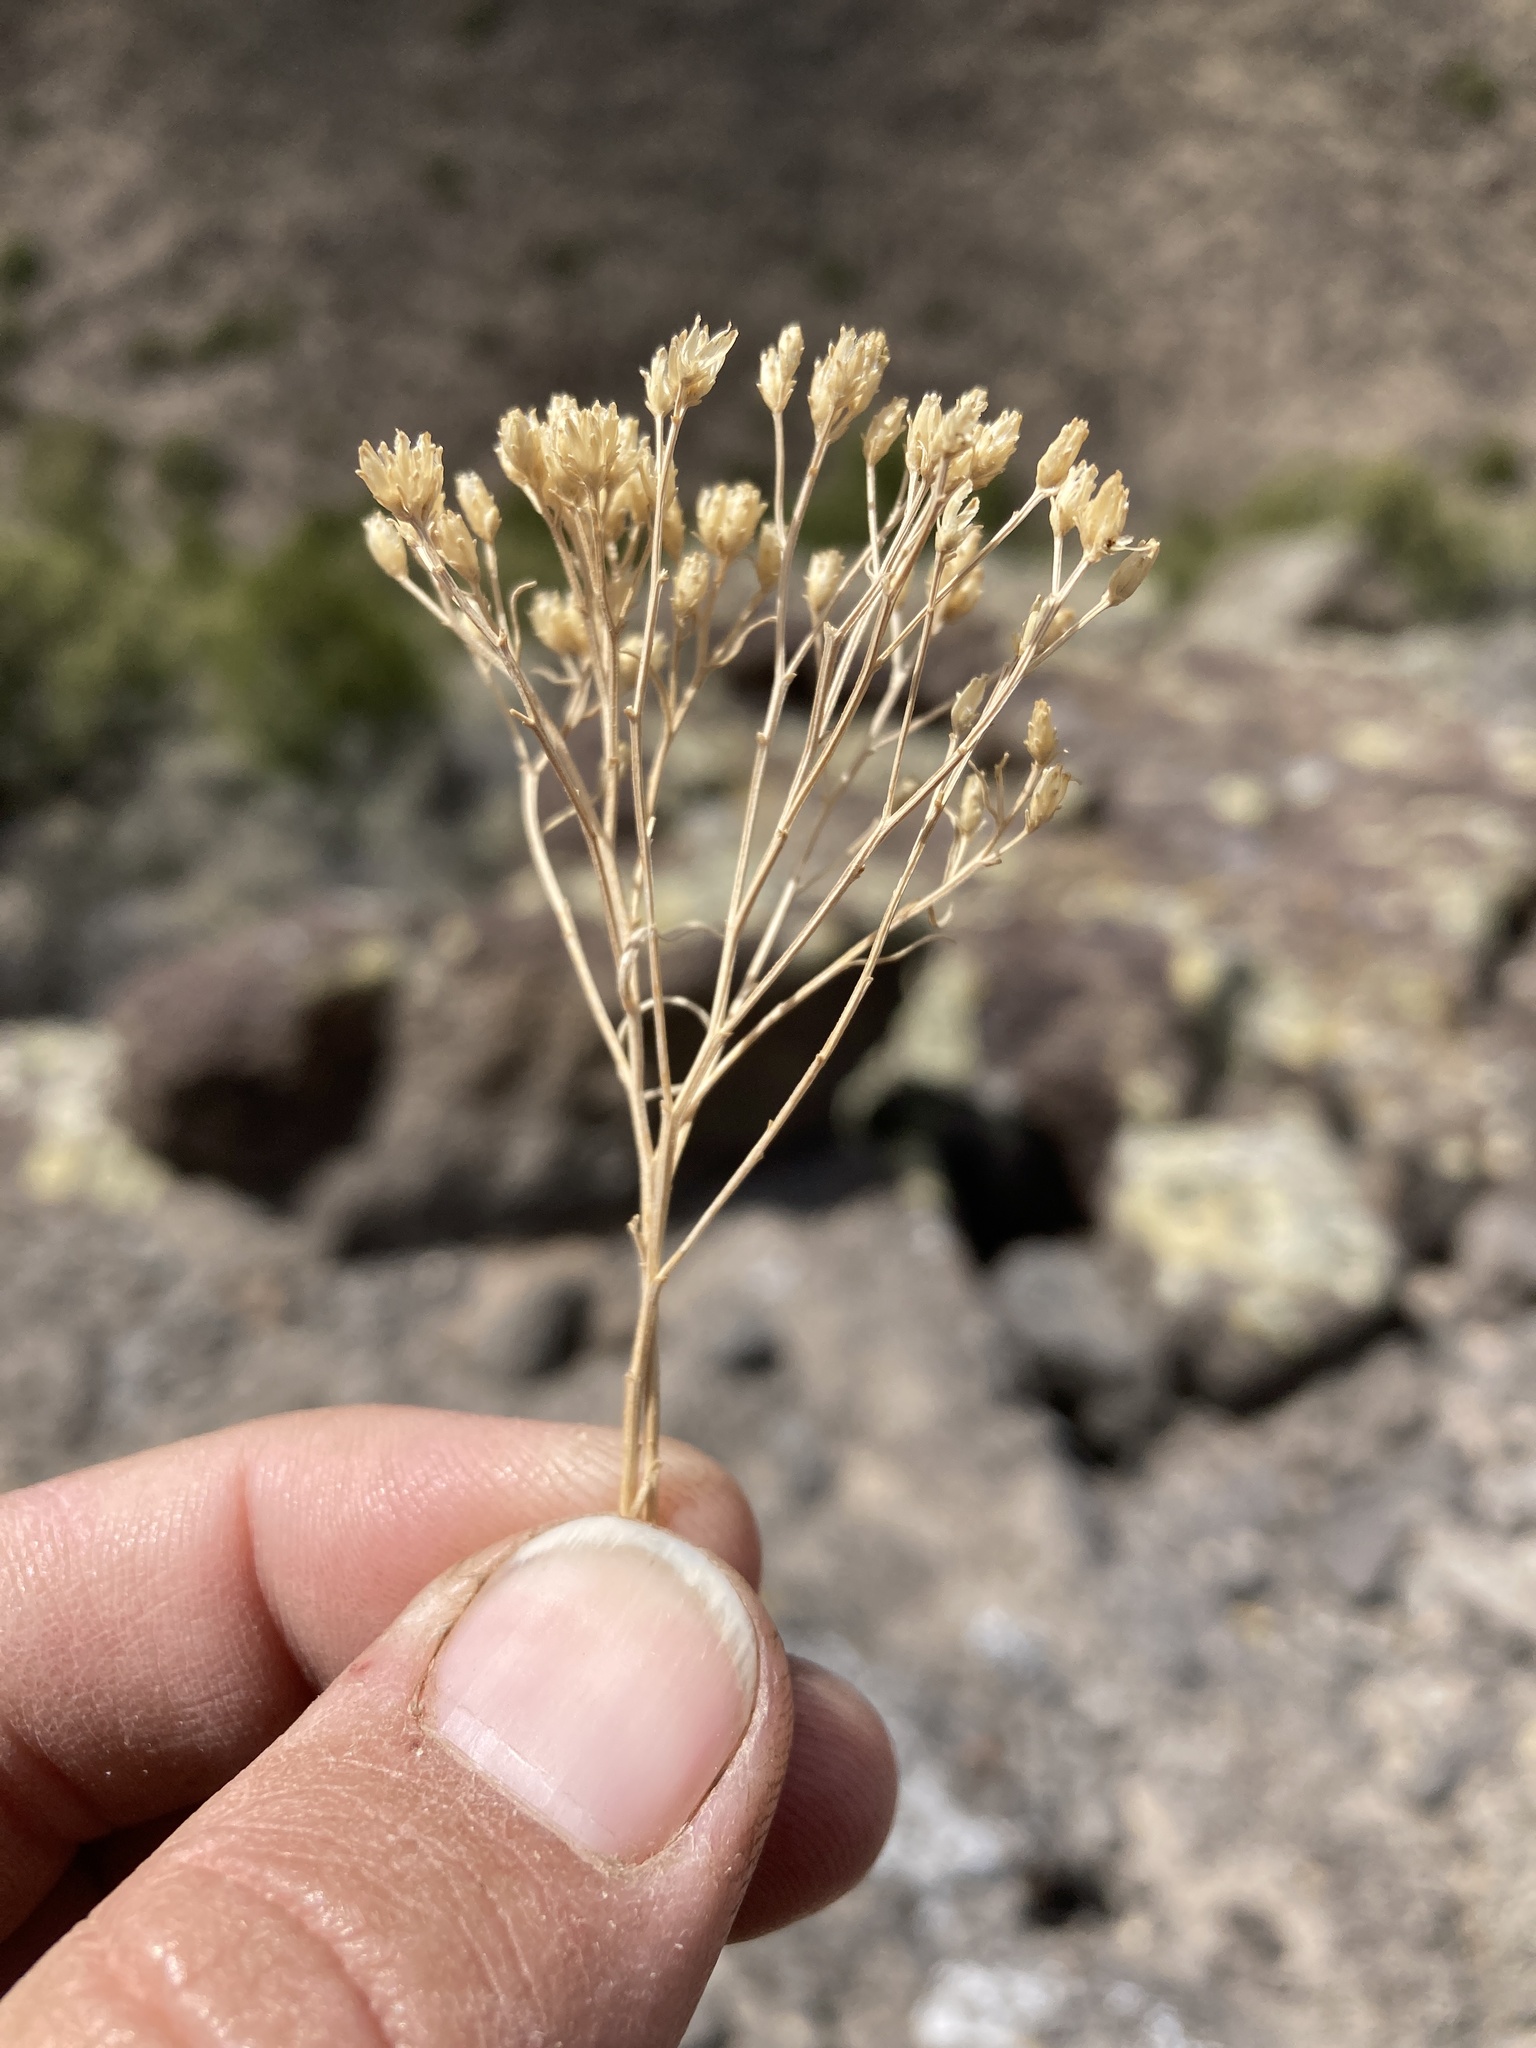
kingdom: Plantae
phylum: Tracheophyta
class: Magnoliopsida
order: Asterales
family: Asteraceae
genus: Gutierrezia
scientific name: Gutierrezia sarothrae
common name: Broom snakeweed
